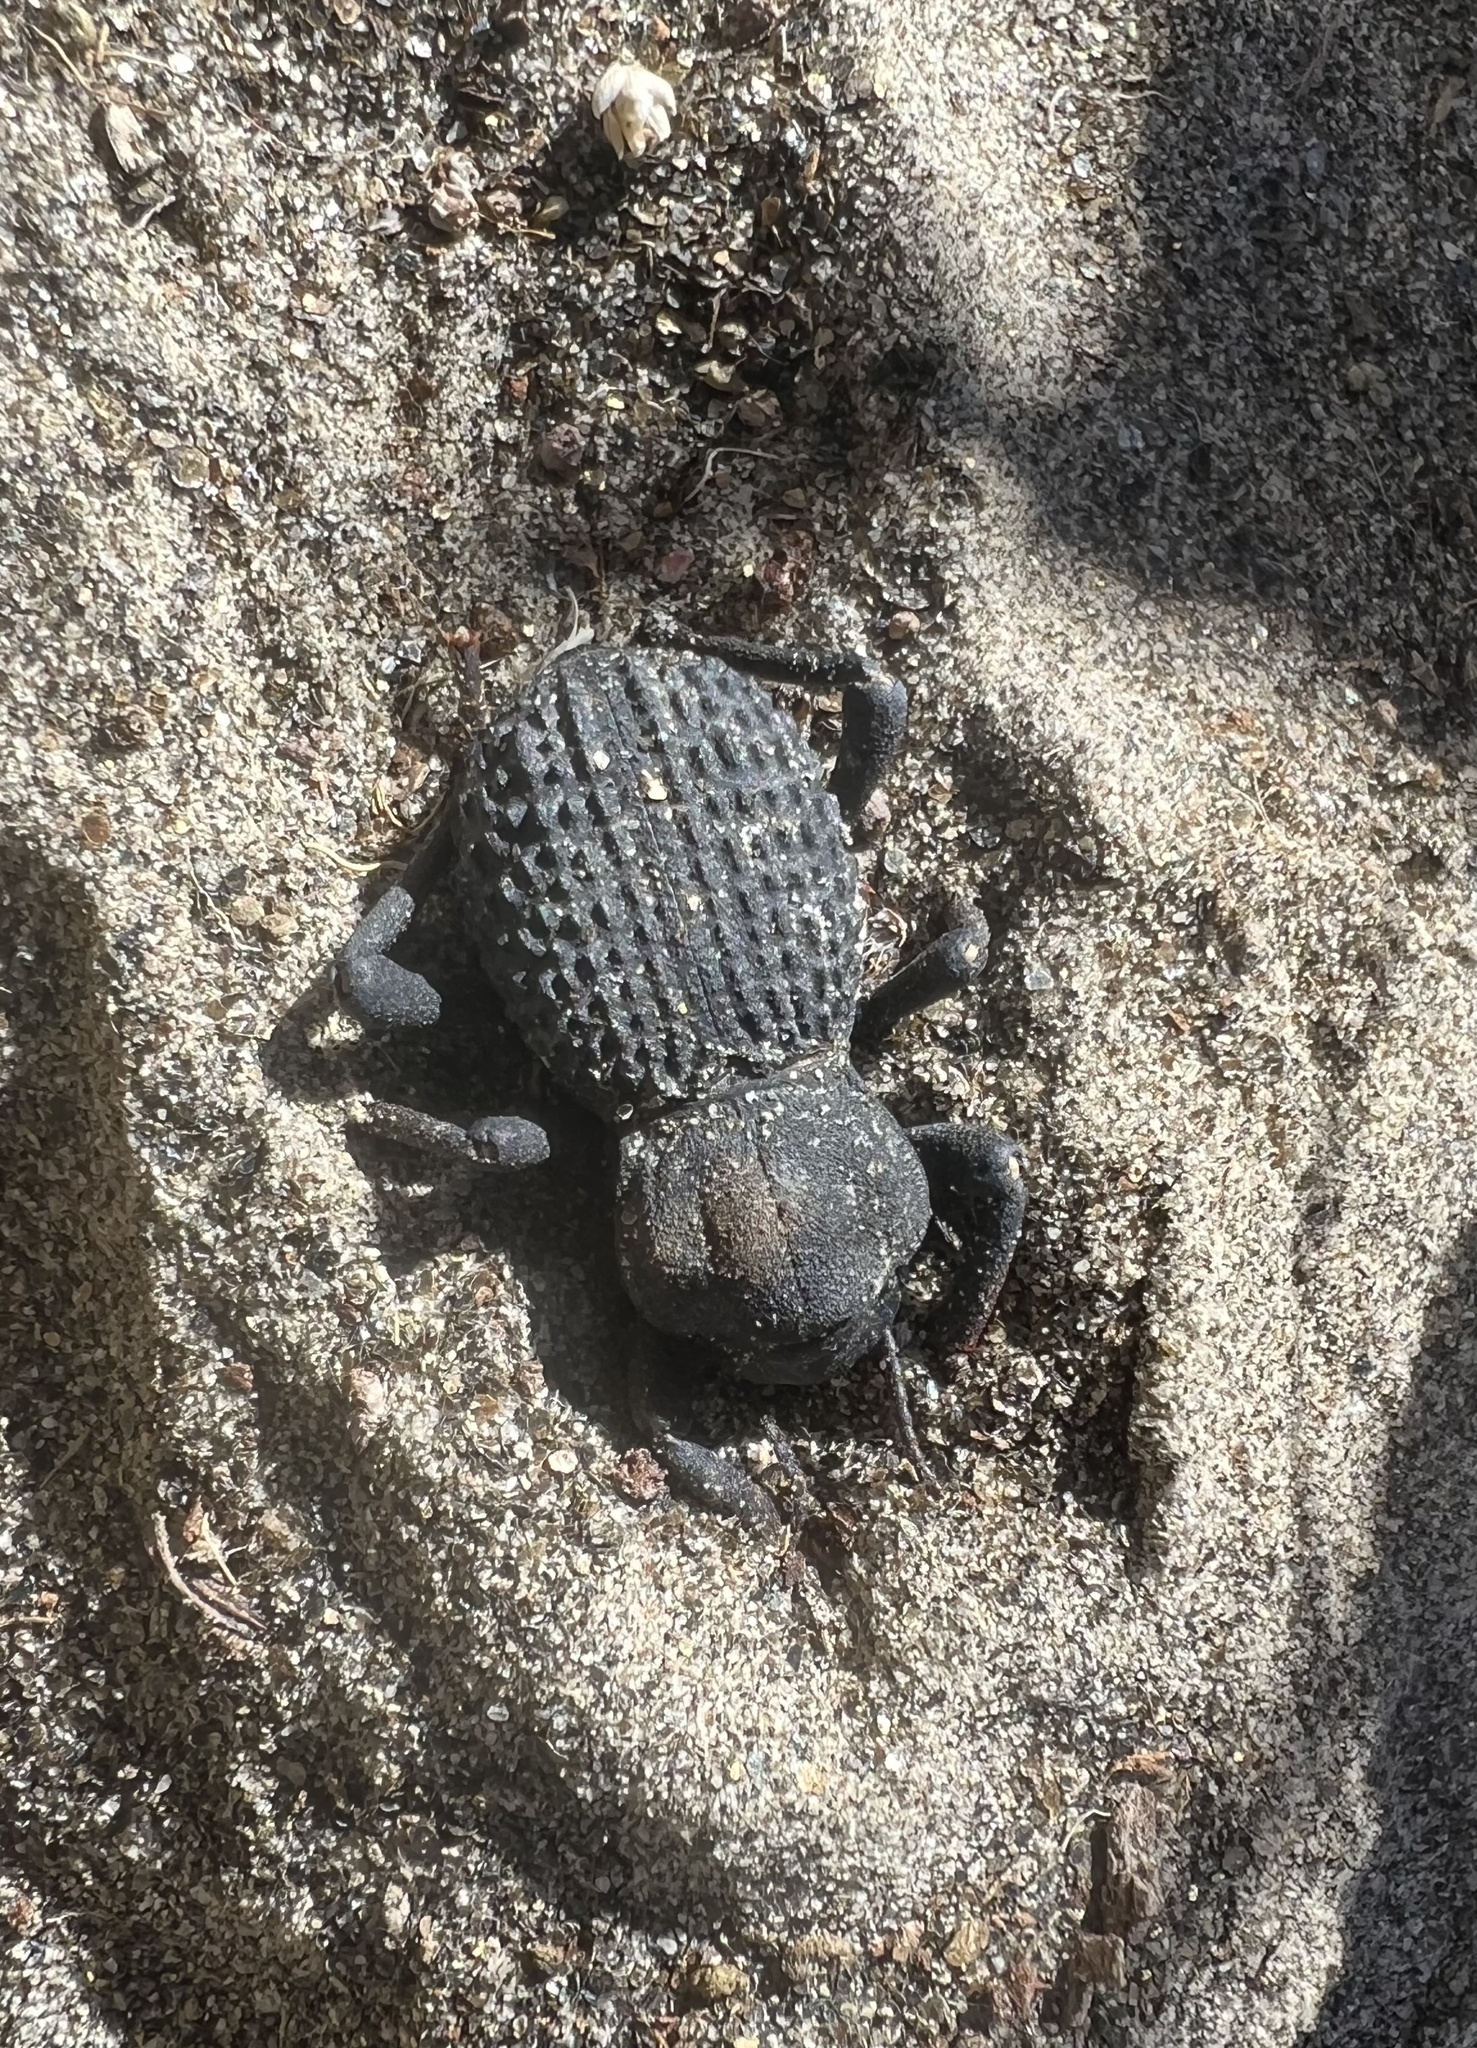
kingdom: Animalia
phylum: Arthropoda
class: Insecta
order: Coleoptera
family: Tenebrionidae
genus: Asbolus
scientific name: Asbolus verrucosus
